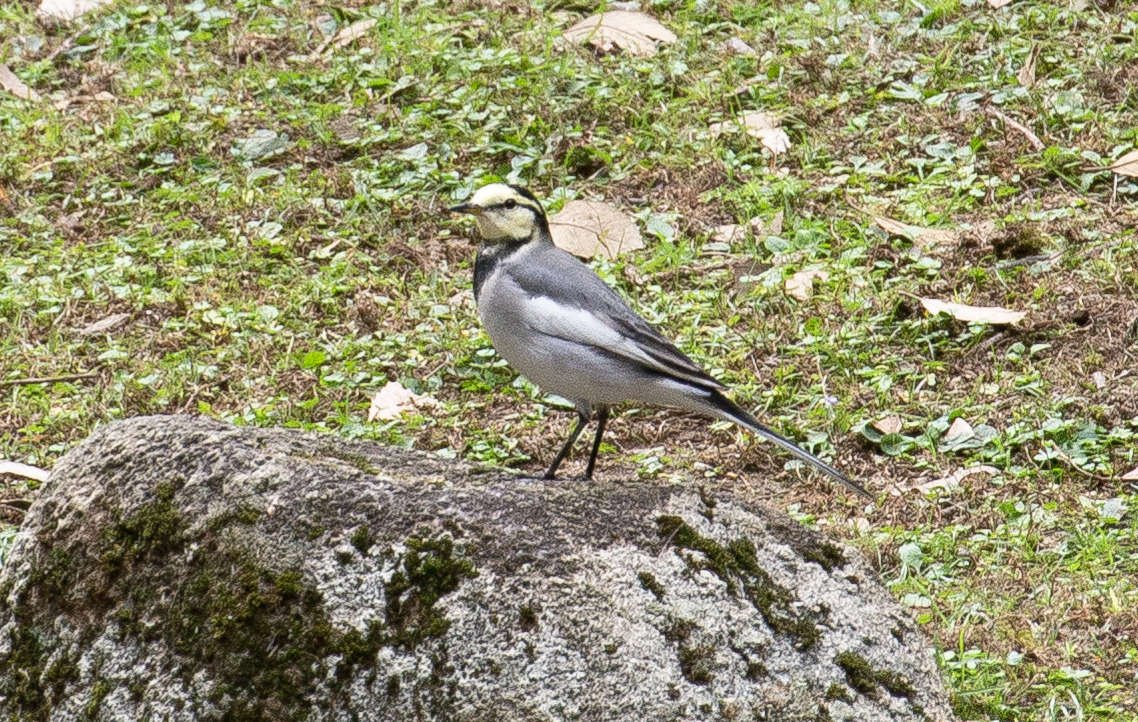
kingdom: Animalia
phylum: Chordata
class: Aves
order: Passeriformes
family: Motacillidae
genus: Motacilla
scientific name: Motacilla alba
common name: White wagtail
